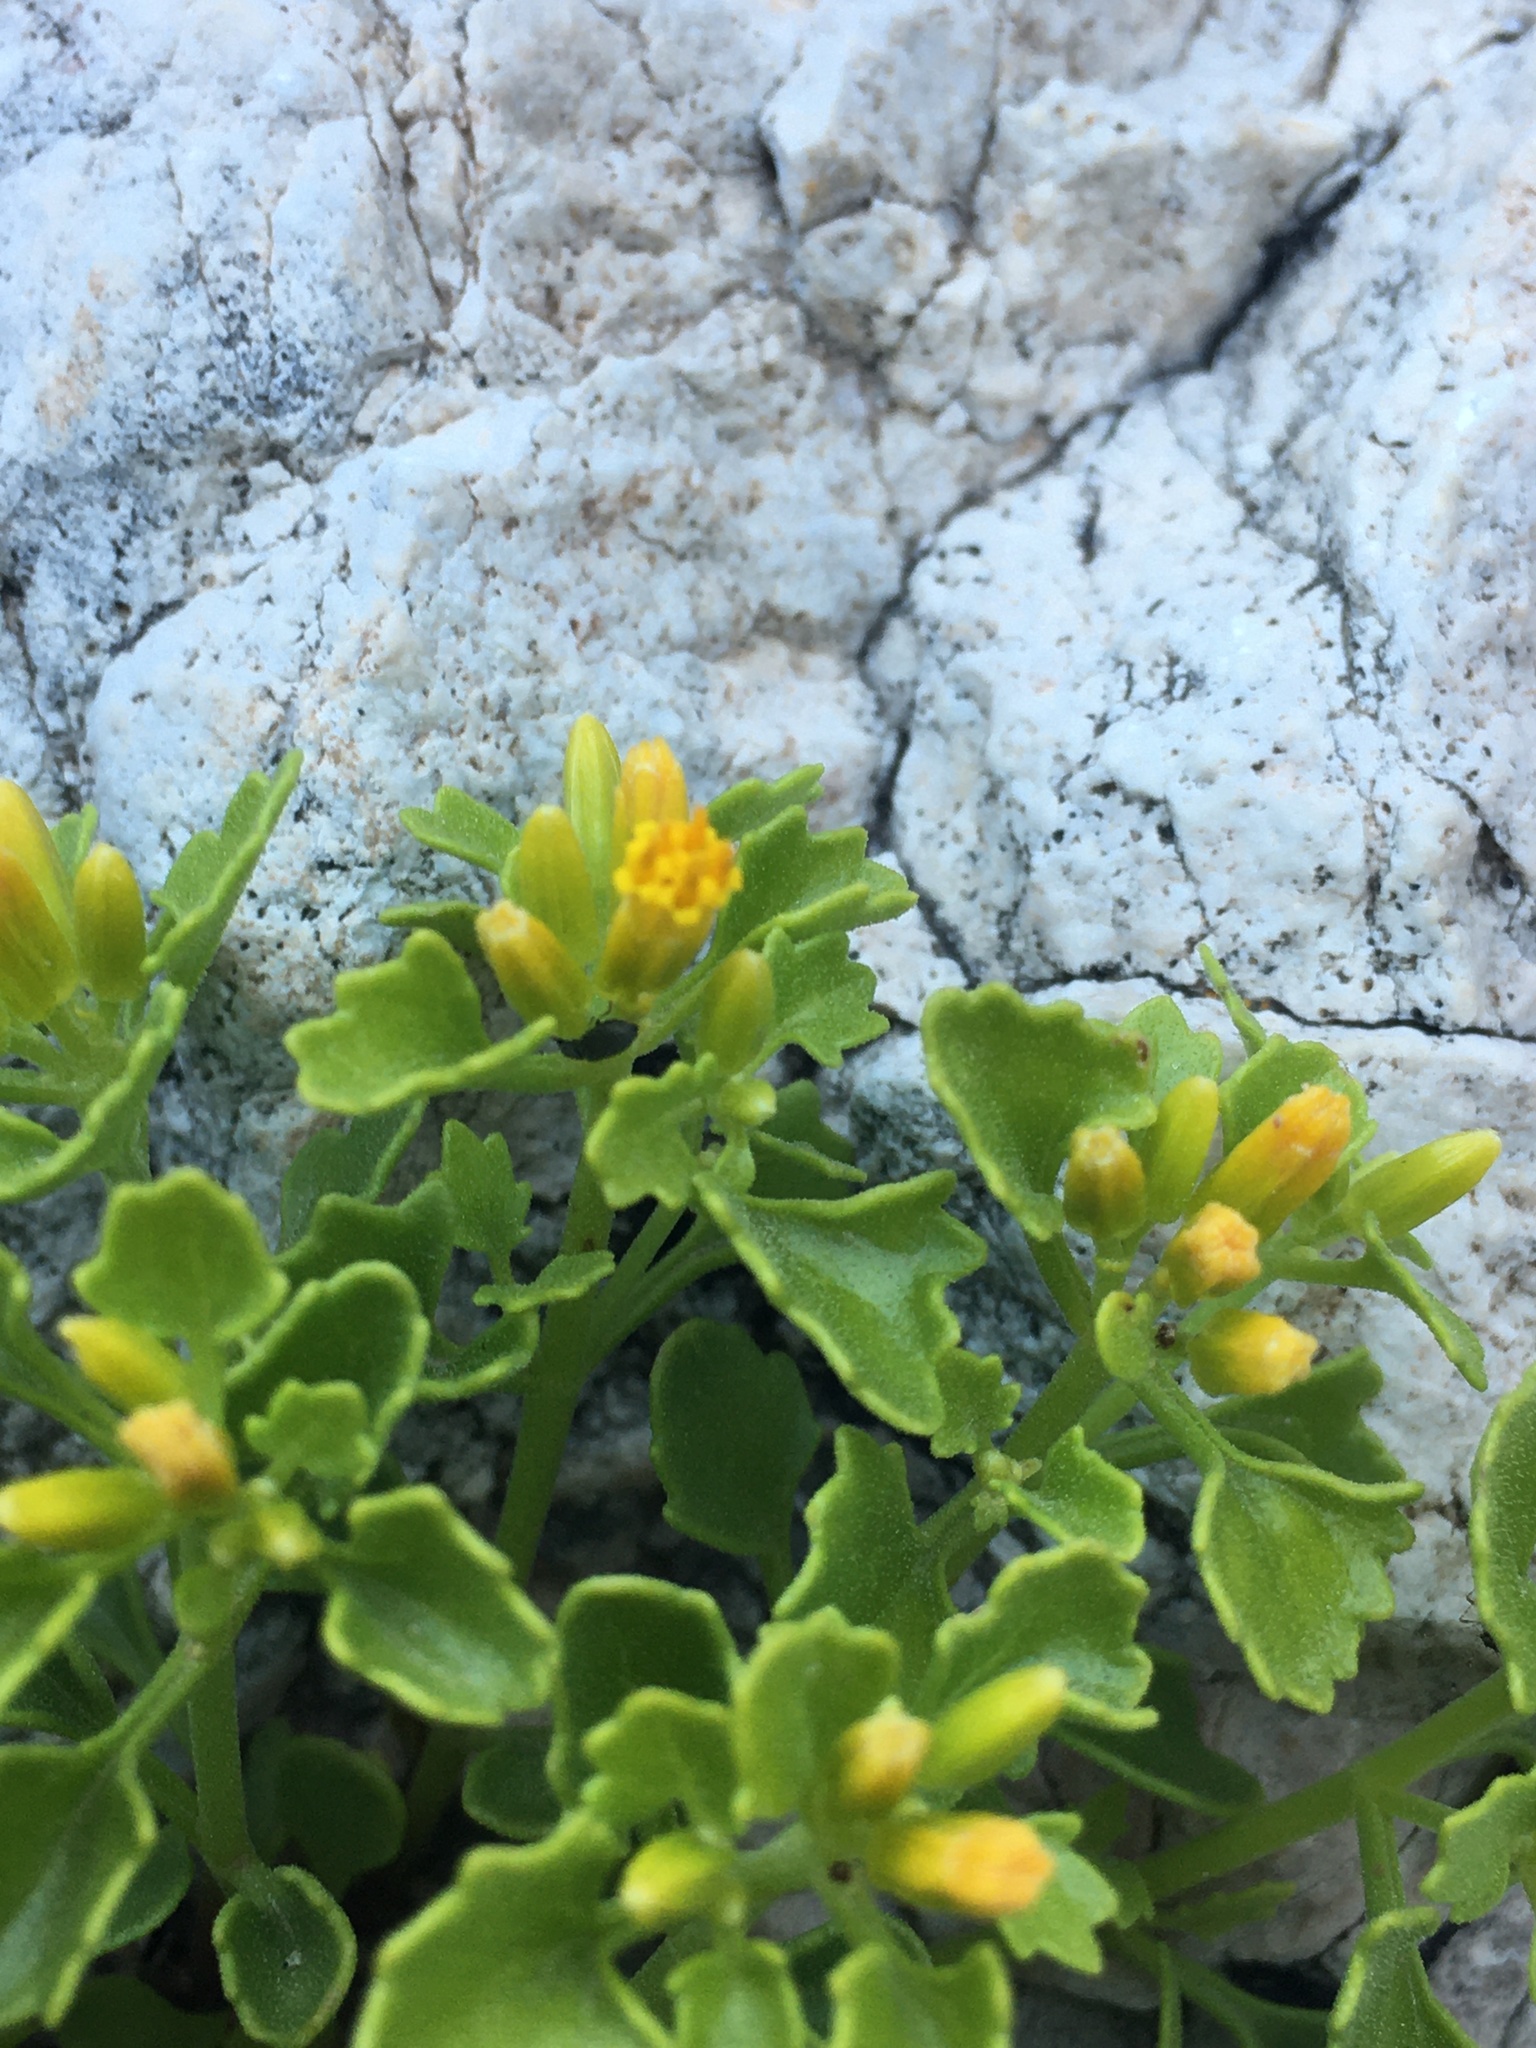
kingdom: Plantae
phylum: Tracheophyta
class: Magnoliopsida
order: Asterales
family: Asteraceae
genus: Laphamia
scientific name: Laphamia quinqueflora
